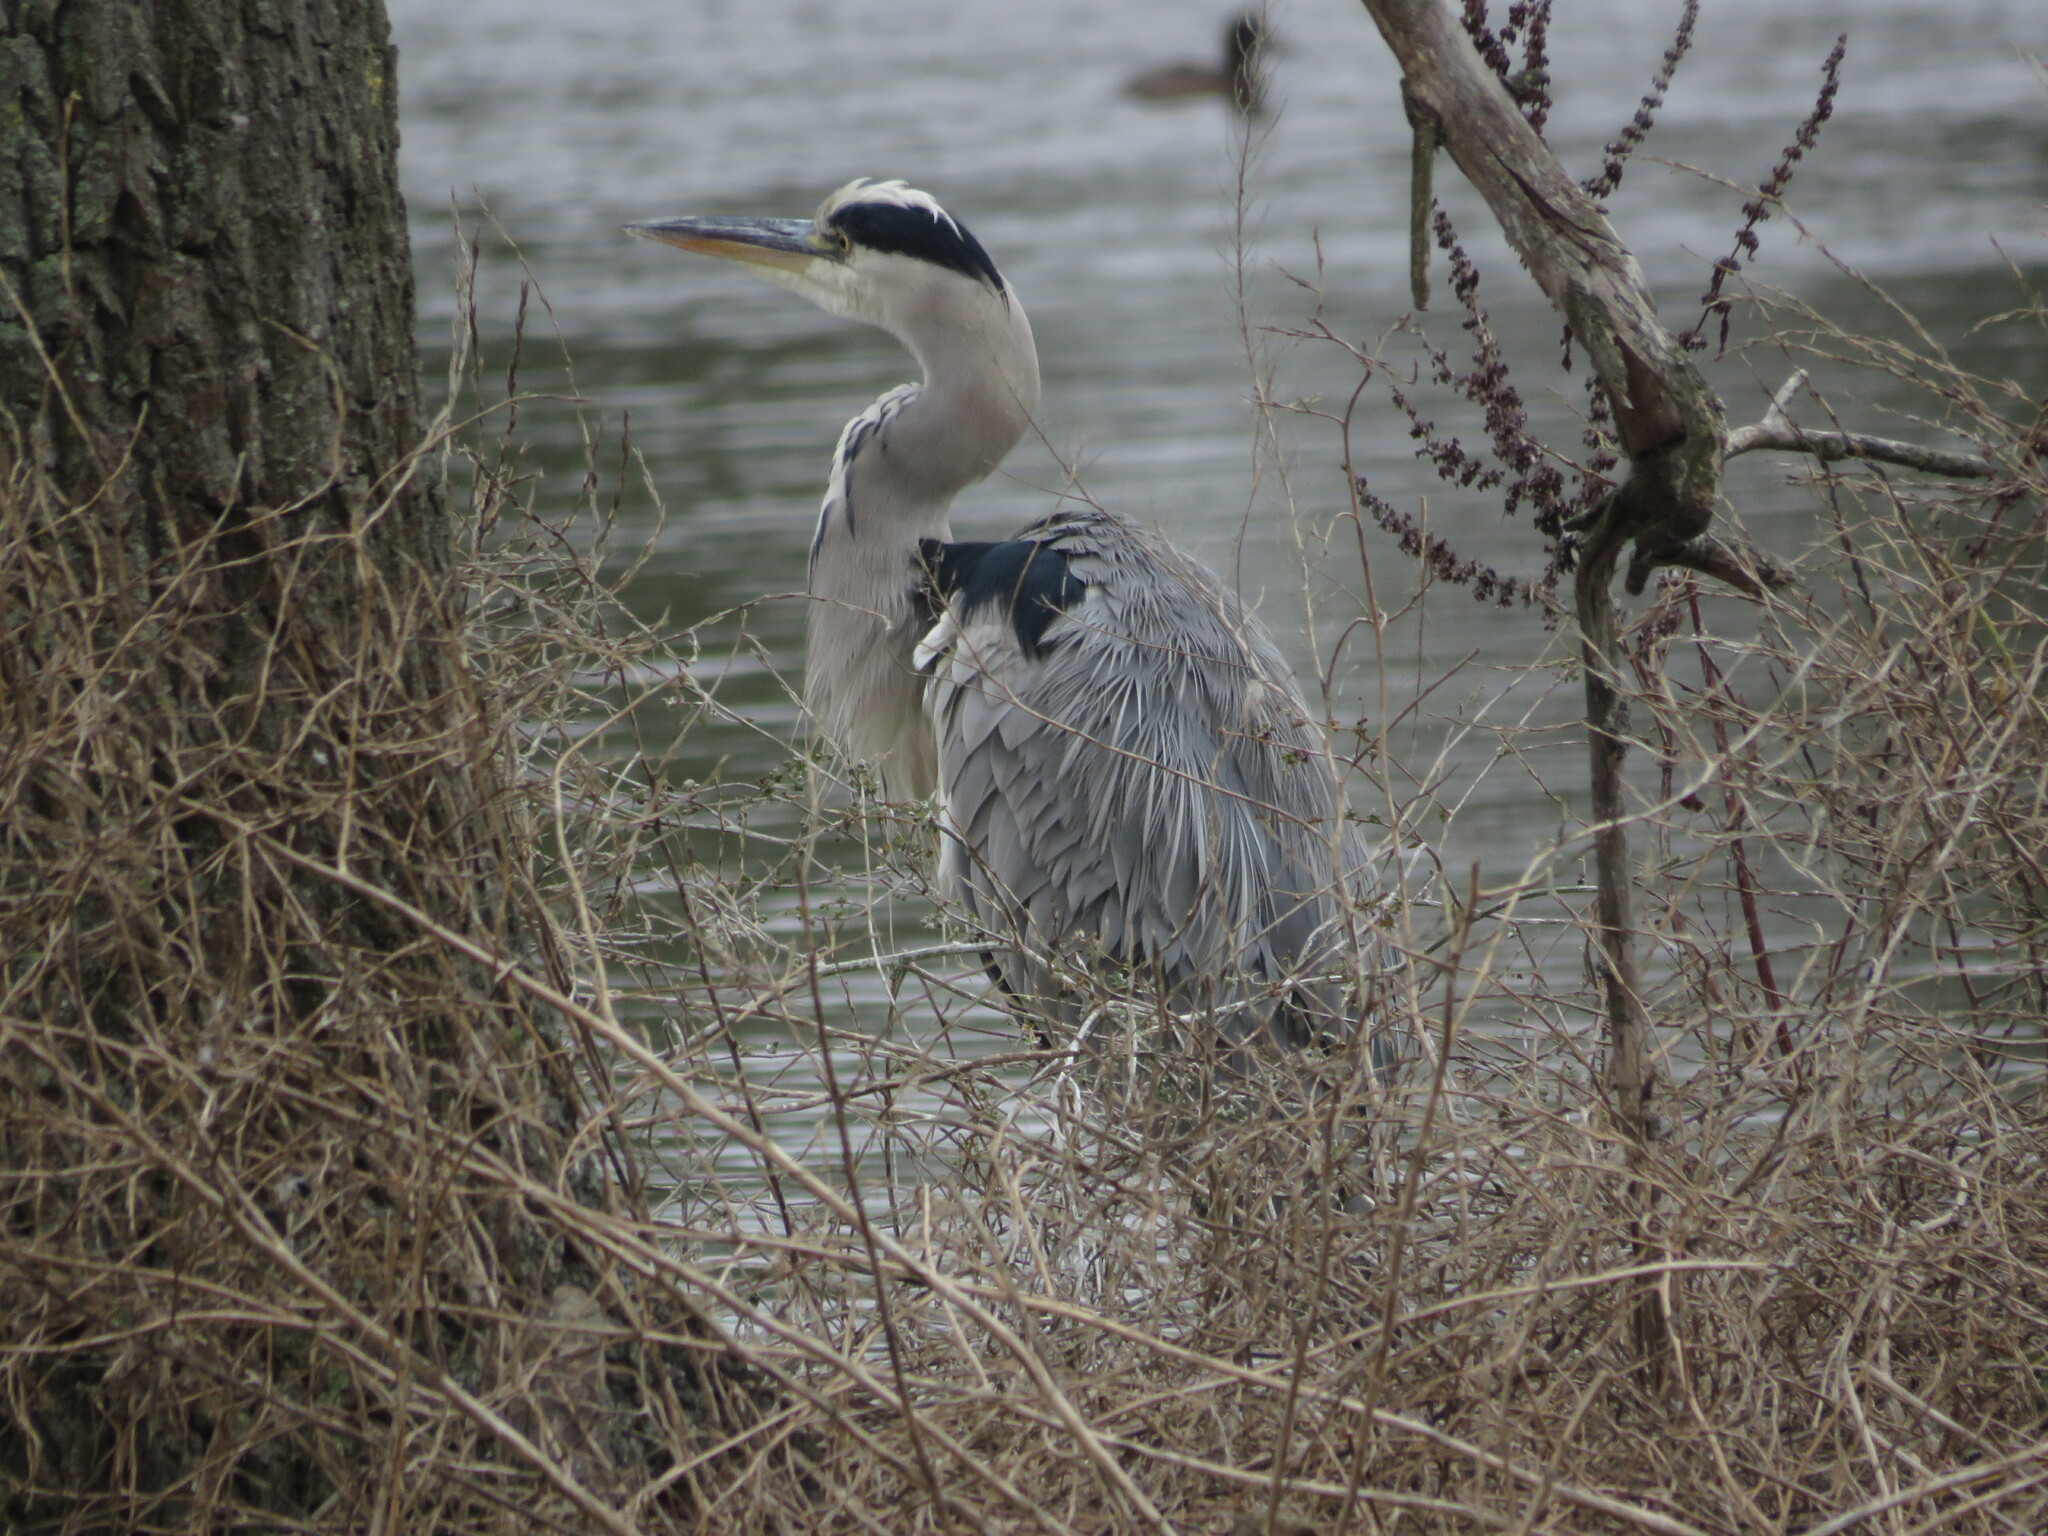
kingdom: Animalia
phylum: Chordata
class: Aves
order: Pelecaniformes
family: Ardeidae
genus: Ardea
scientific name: Ardea cinerea
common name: Grey heron
